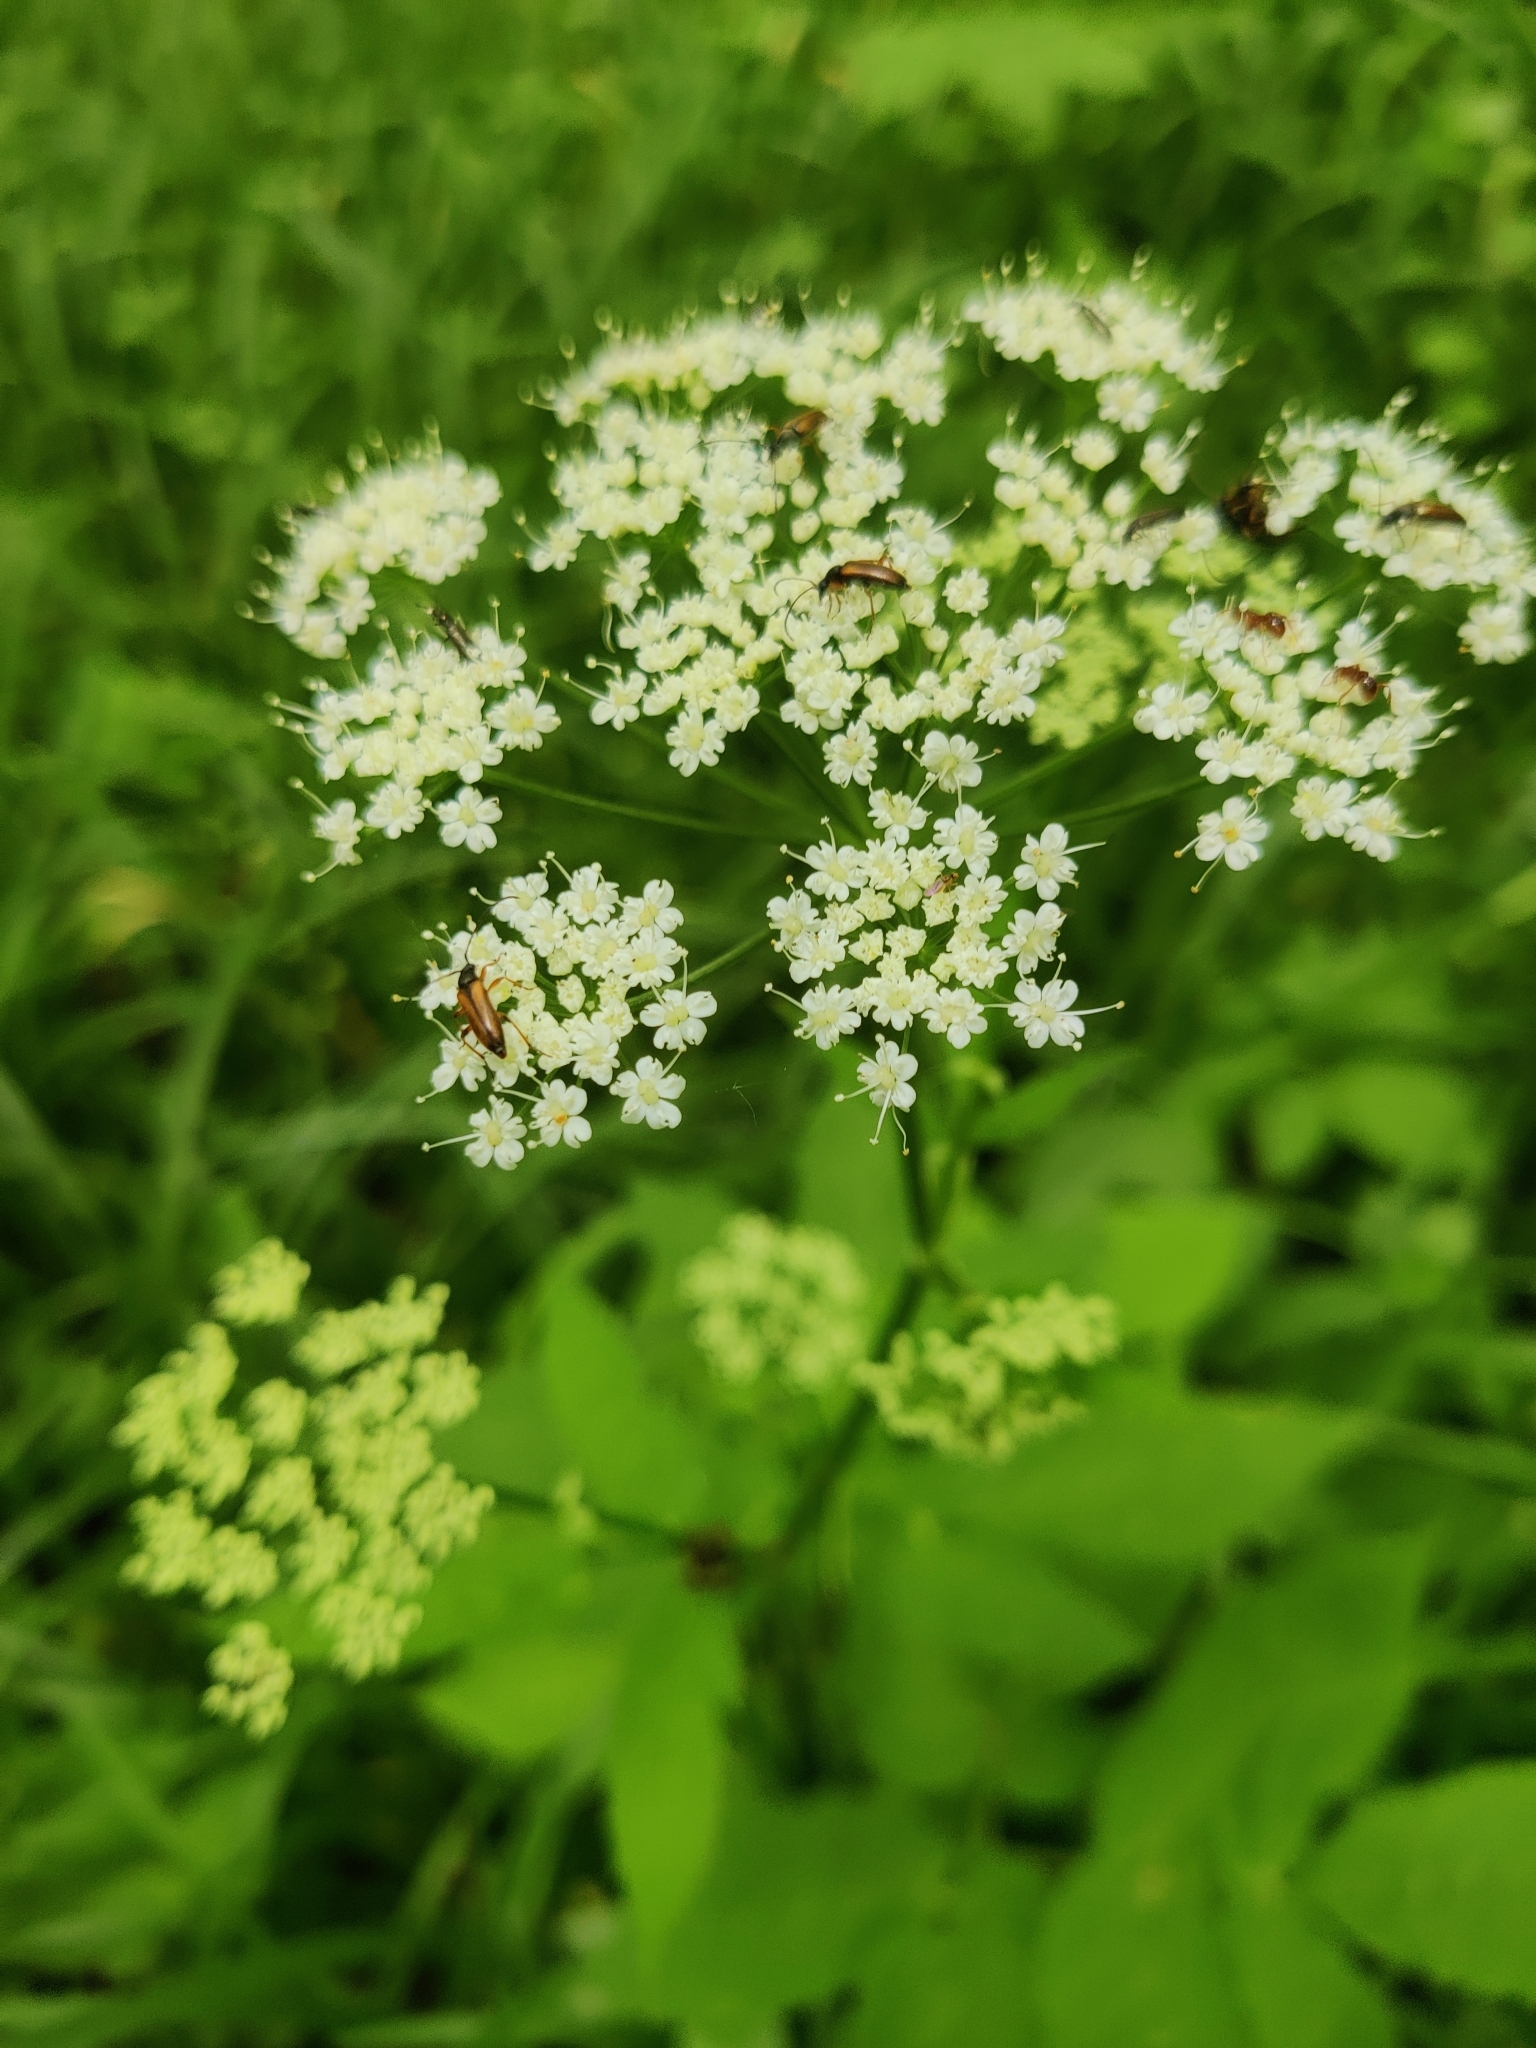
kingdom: Plantae
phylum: Tracheophyta
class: Magnoliopsida
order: Apiales
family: Apiaceae
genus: Aegopodium
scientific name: Aegopodium podagraria
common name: Ground-elder
